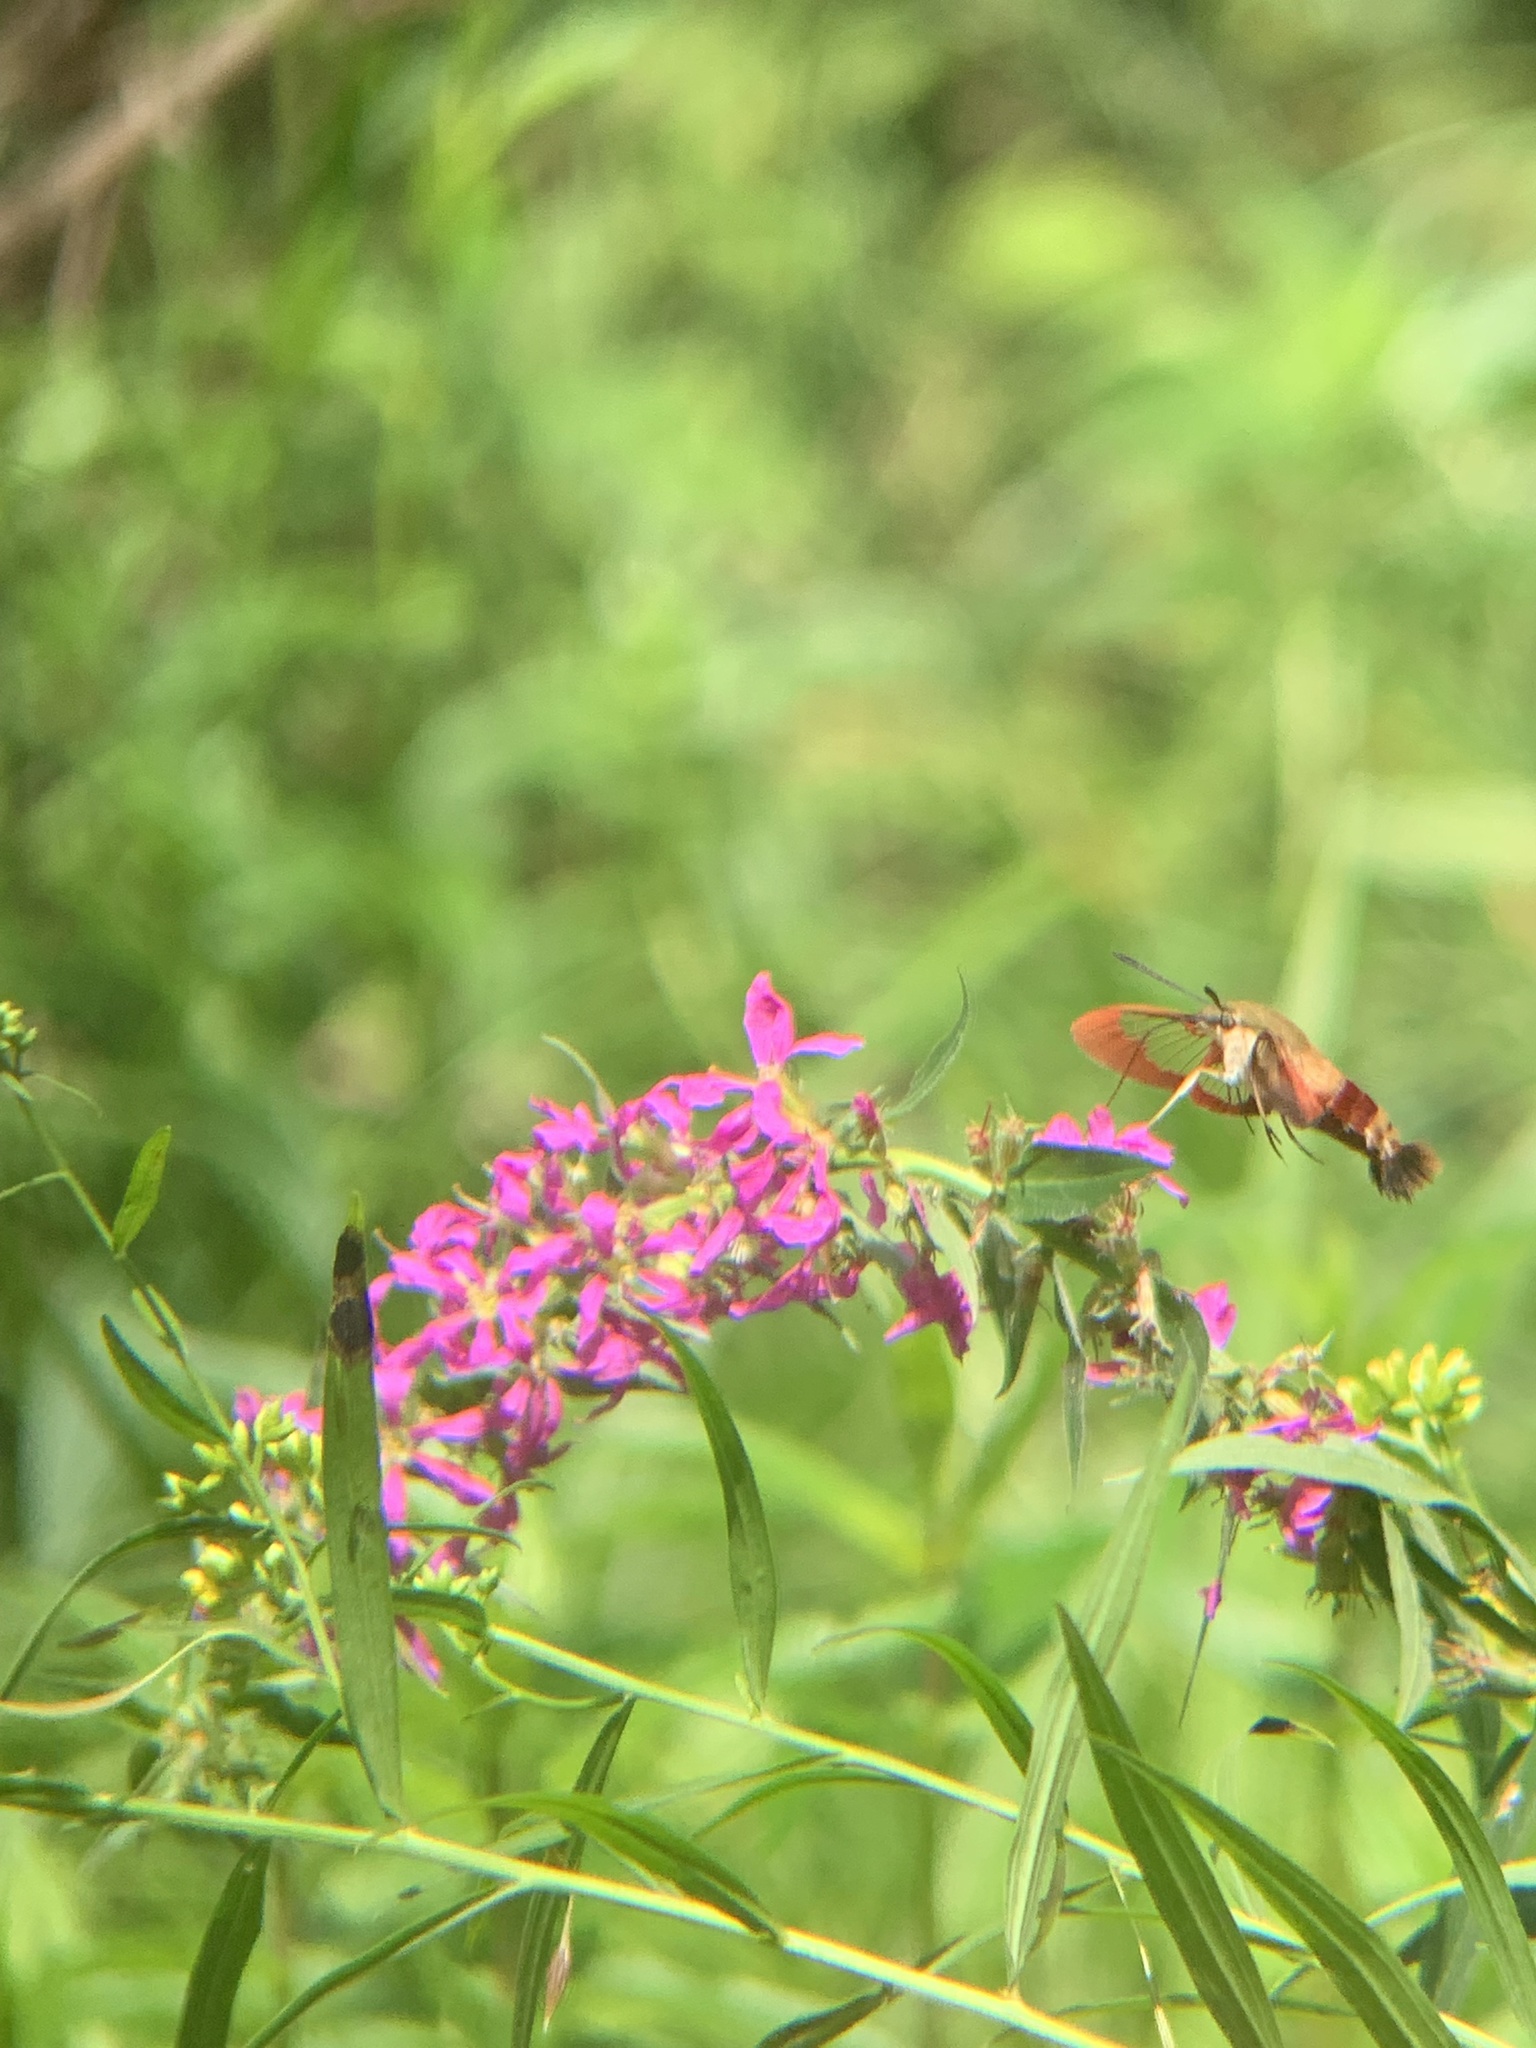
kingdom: Animalia
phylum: Arthropoda
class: Insecta
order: Lepidoptera
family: Sphingidae
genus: Hemaris
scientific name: Hemaris thysbe
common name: Common clear-wing
